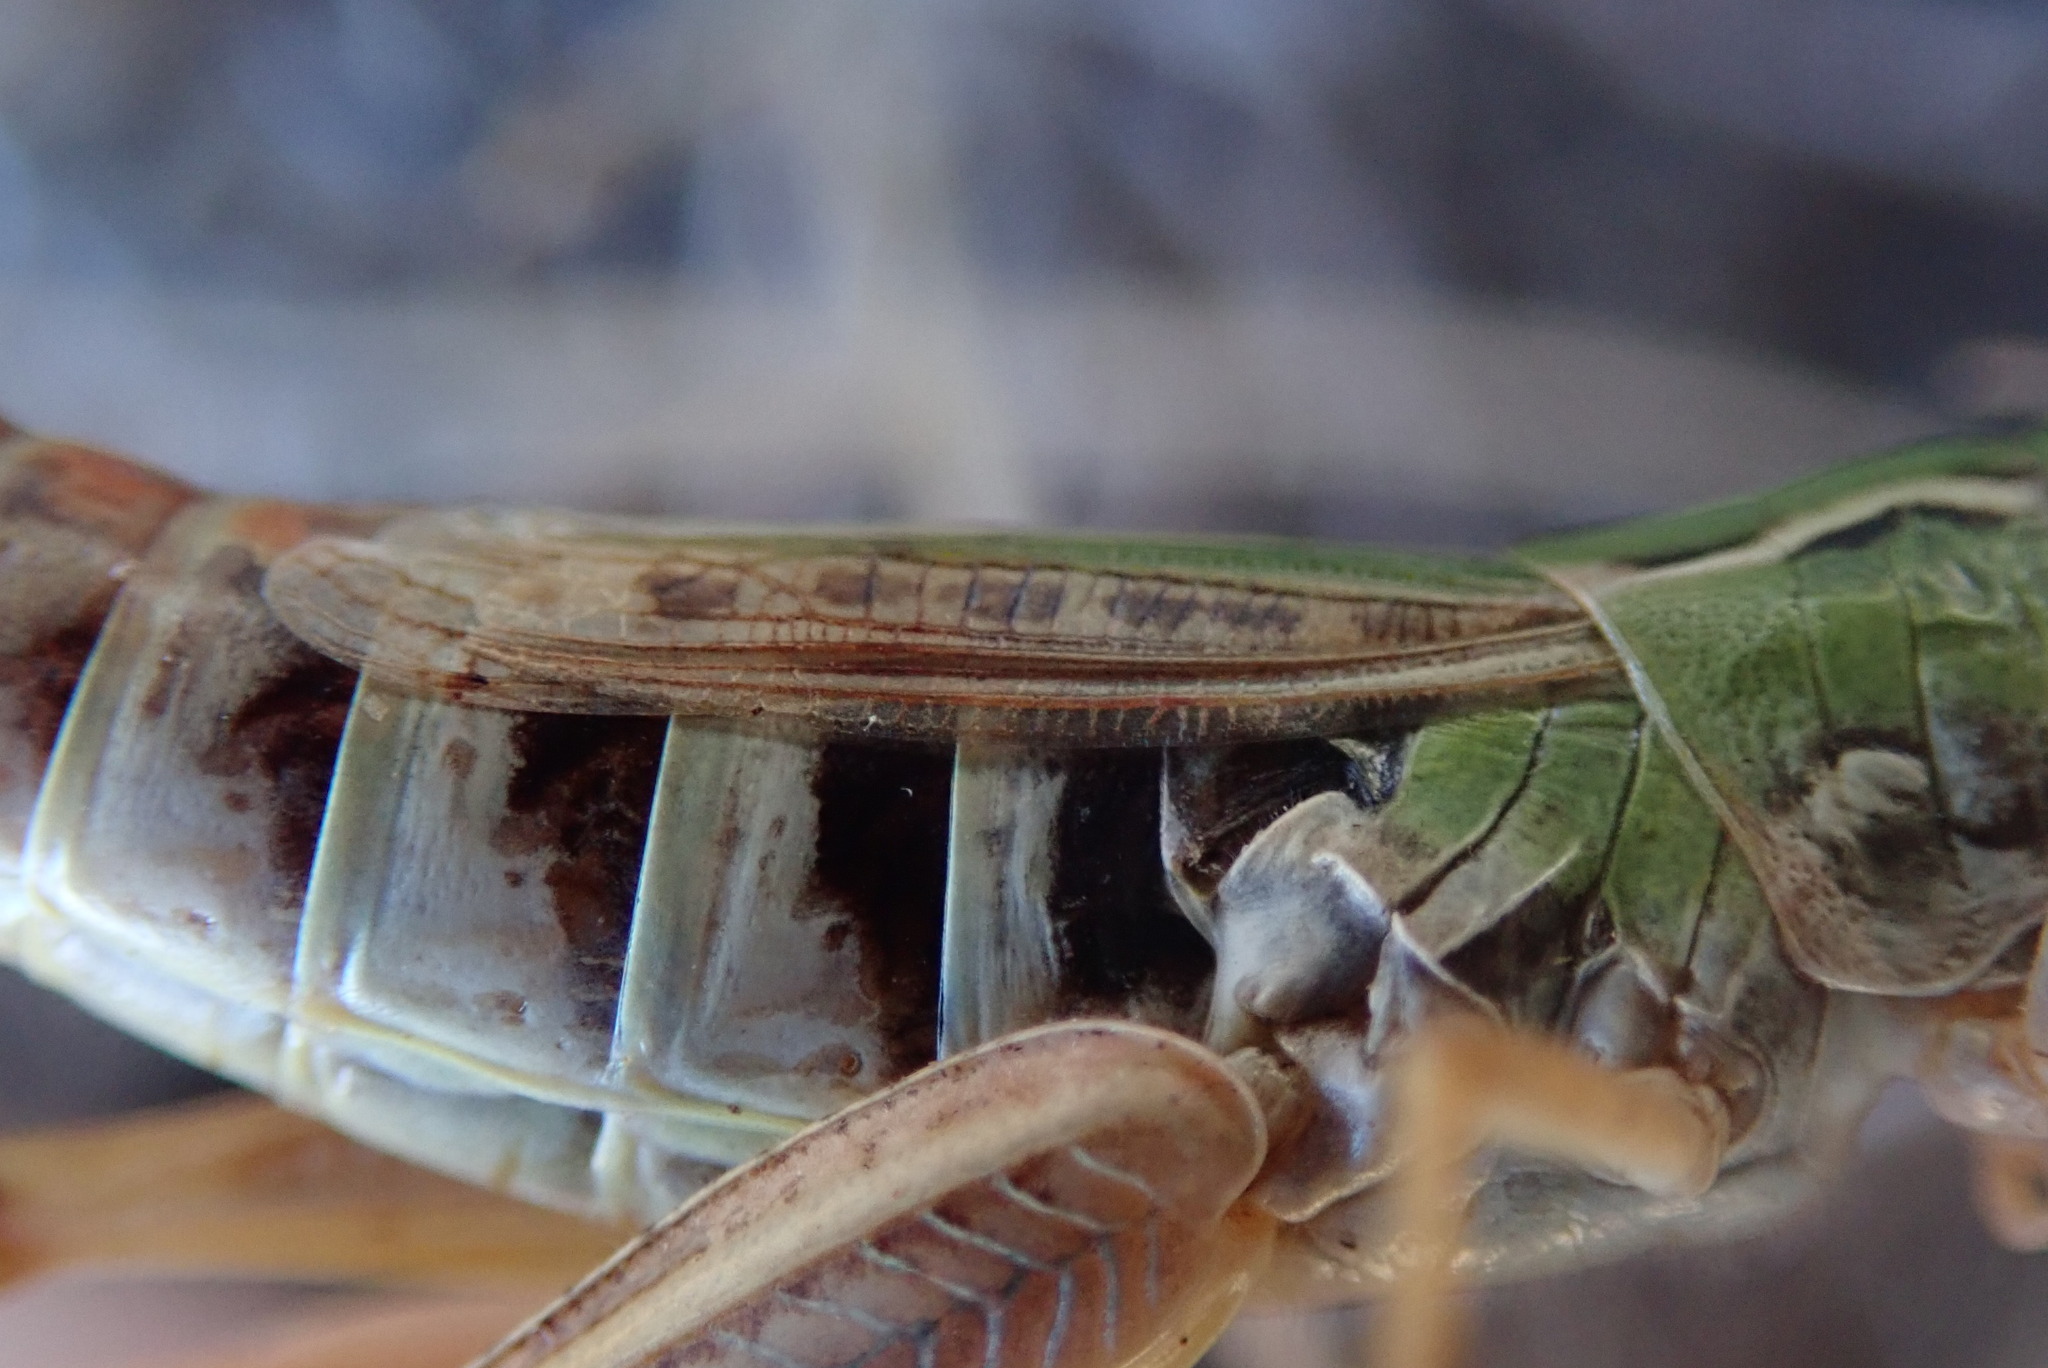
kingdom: Animalia
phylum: Arthropoda
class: Insecta
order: Orthoptera
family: Acrididae
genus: Stenobothrus
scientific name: Stenobothrus nigromaculatus
